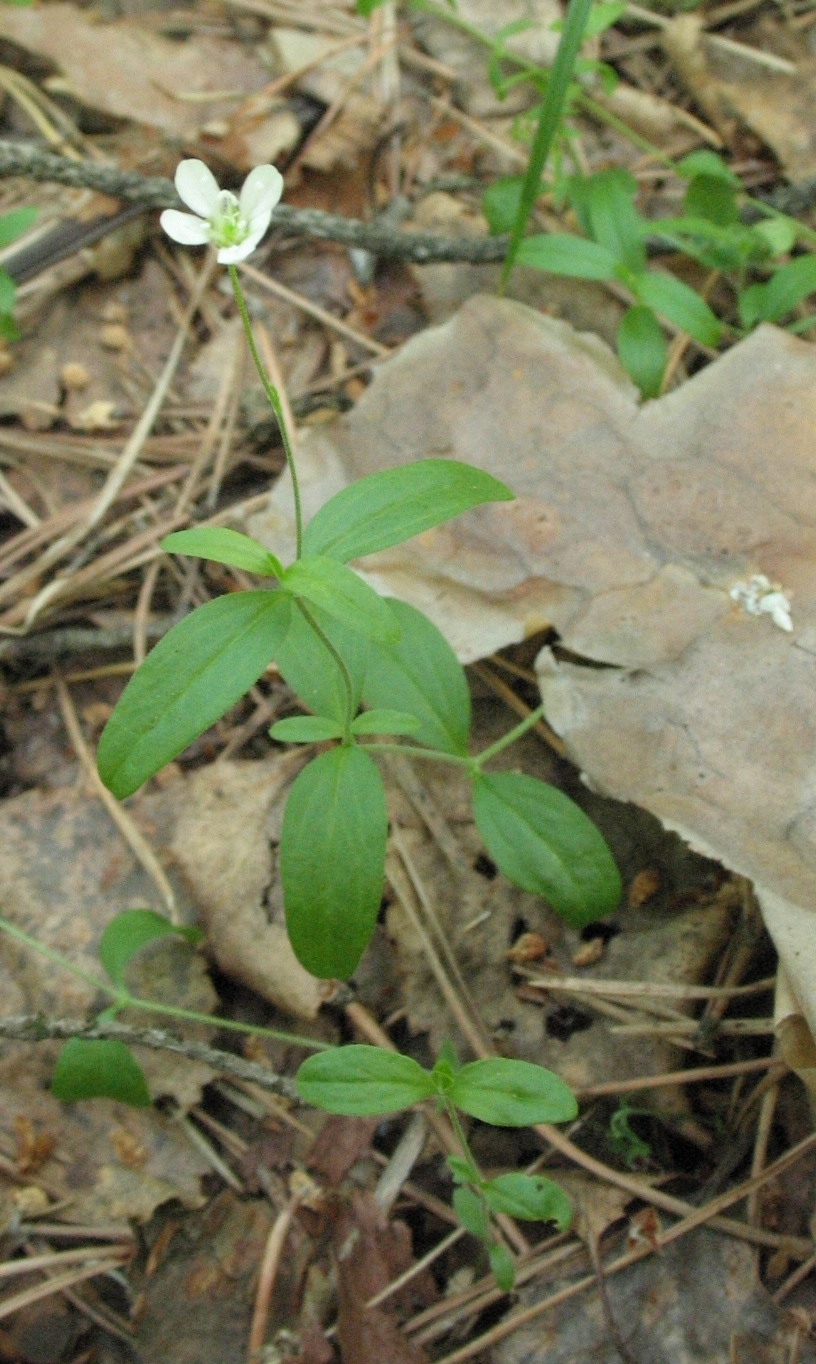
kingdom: Plantae
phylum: Tracheophyta
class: Magnoliopsida
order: Caryophyllales
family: Caryophyllaceae
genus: Moehringia
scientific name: Moehringia lateriflora
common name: Blunt-leaved sandwort
